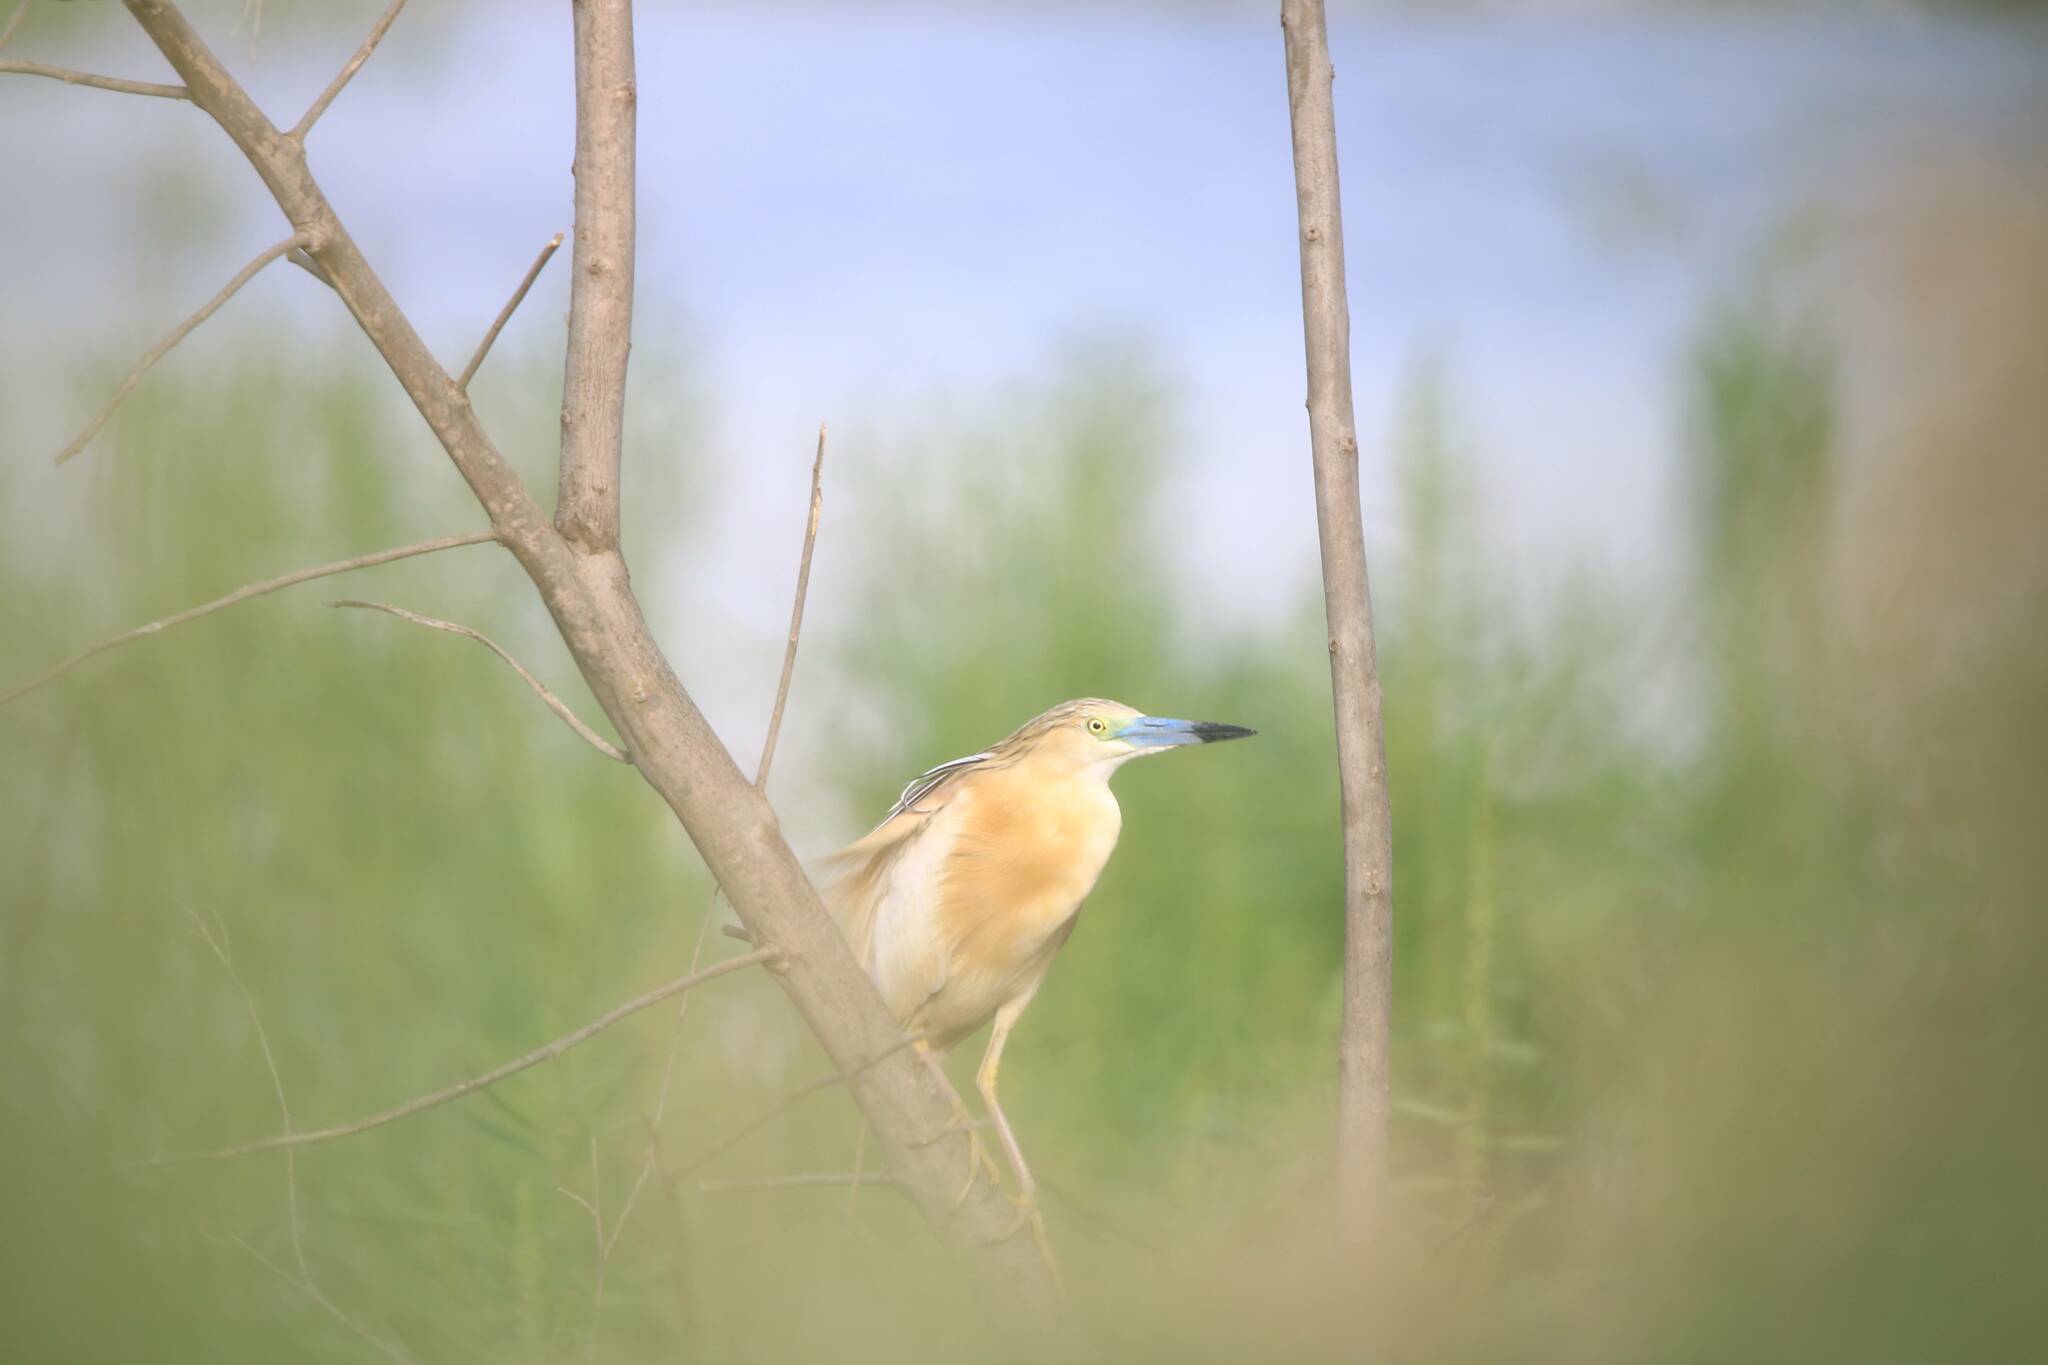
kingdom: Animalia
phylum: Chordata
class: Aves
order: Pelecaniformes
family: Ardeidae
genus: Ardeola
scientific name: Ardeola ralloides
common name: Squacco heron
